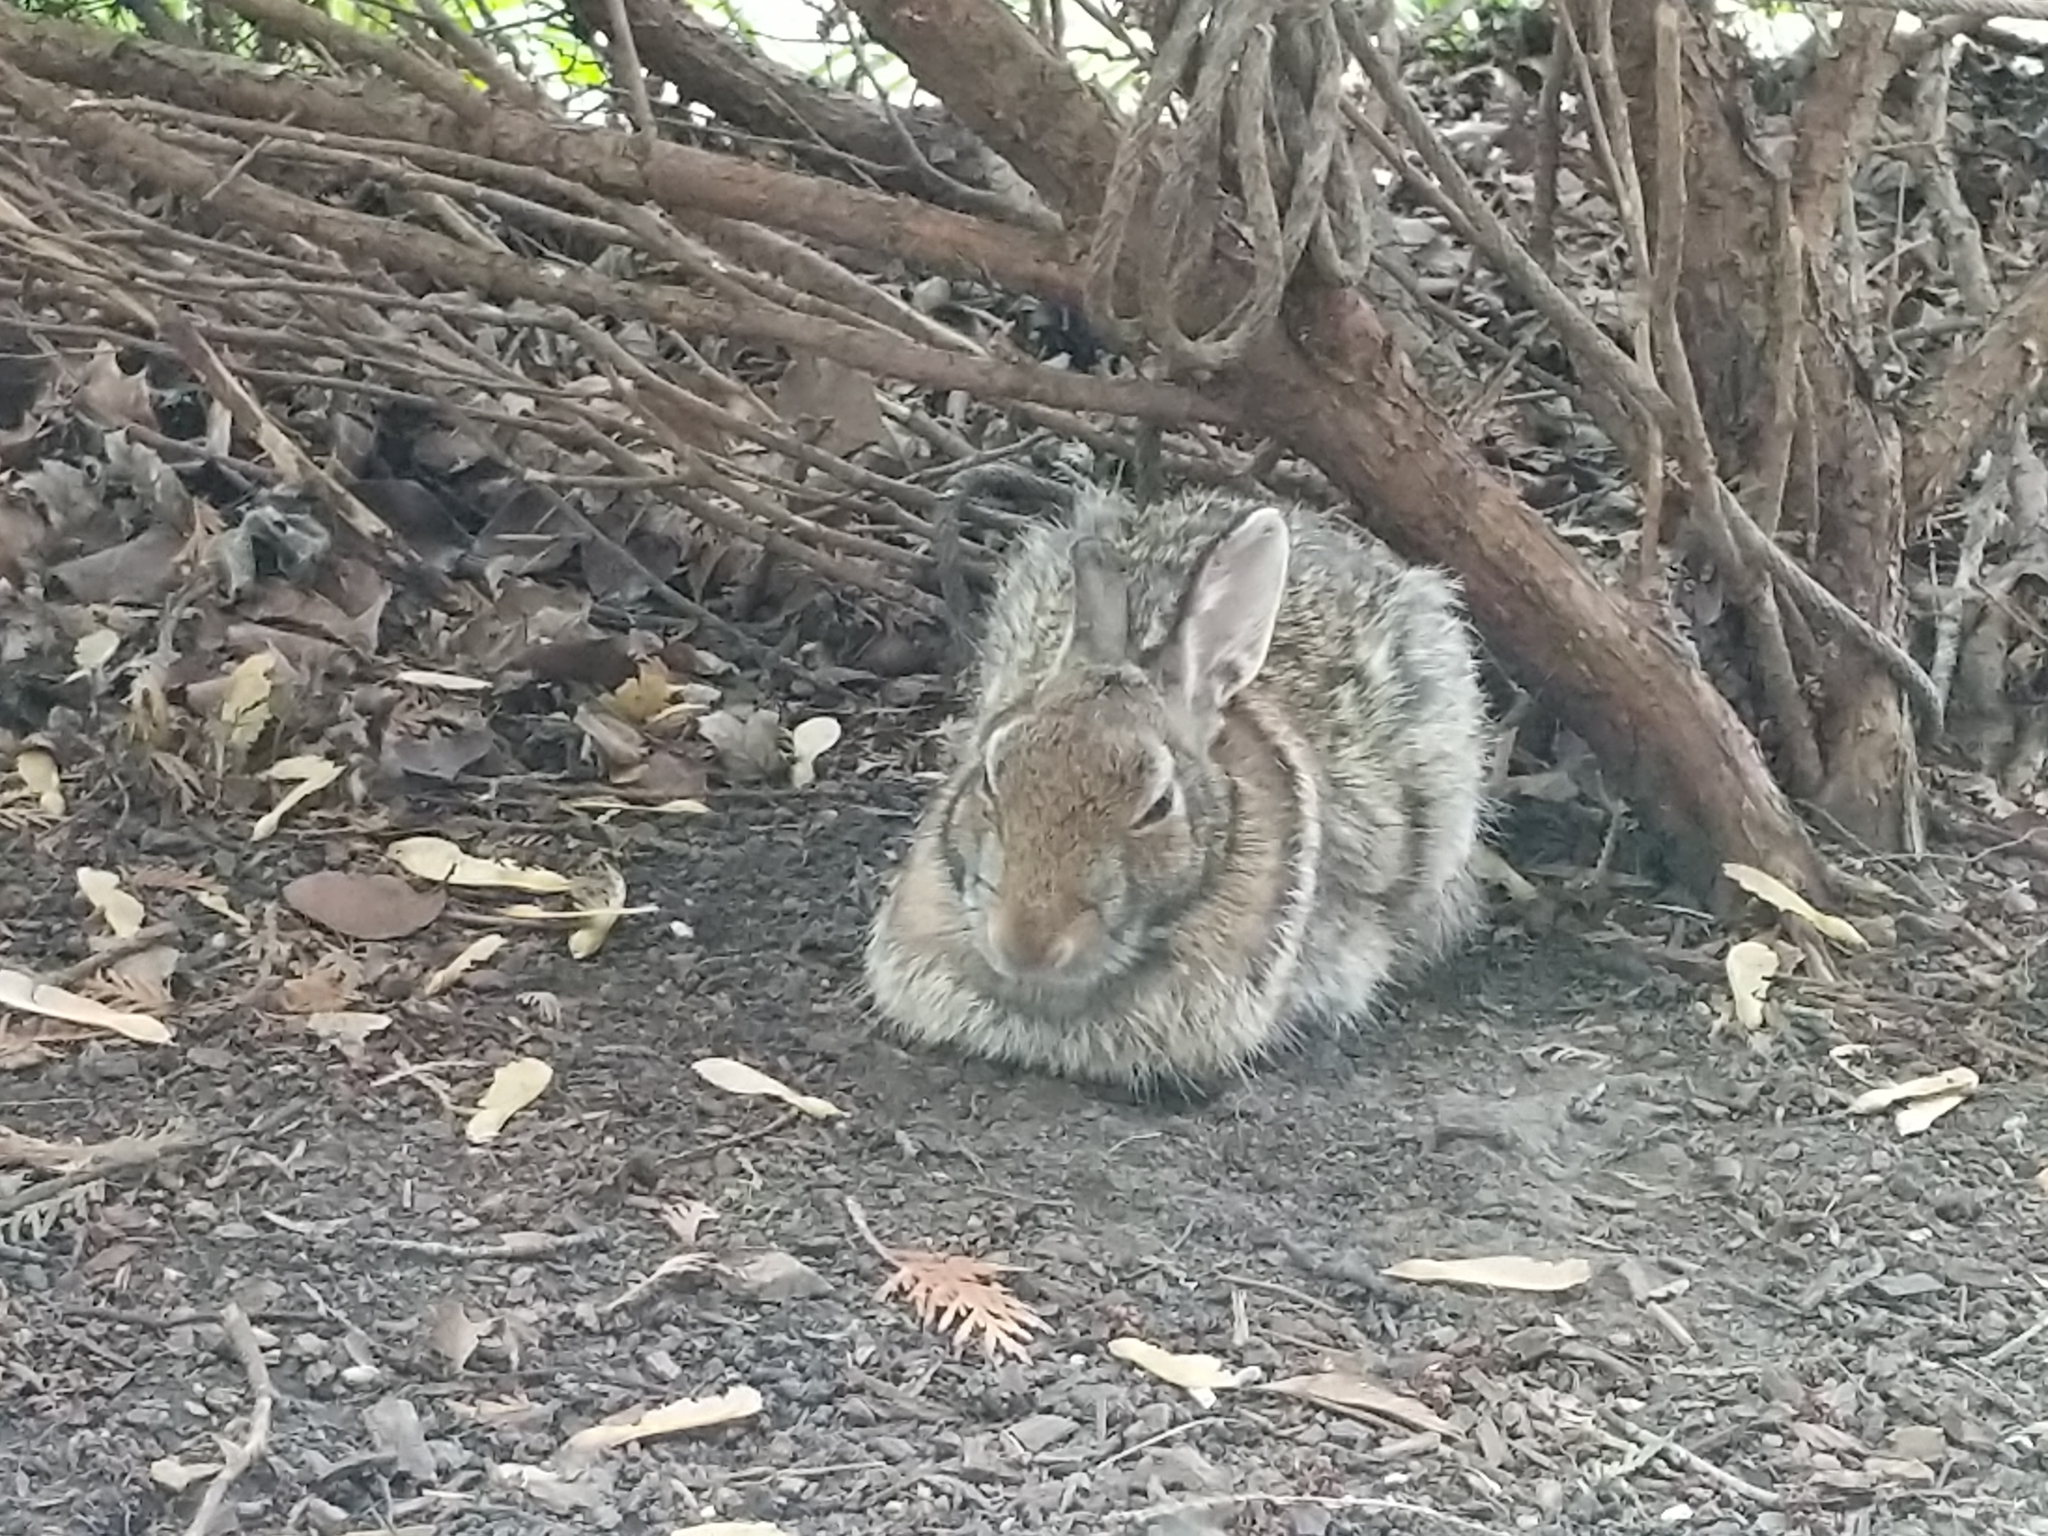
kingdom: Animalia
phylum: Chordata
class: Mammalia
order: Lagomorpha
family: Leporidae
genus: Sylvilagus
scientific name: Sylvilagus floridanus
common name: Eastern cottontail
